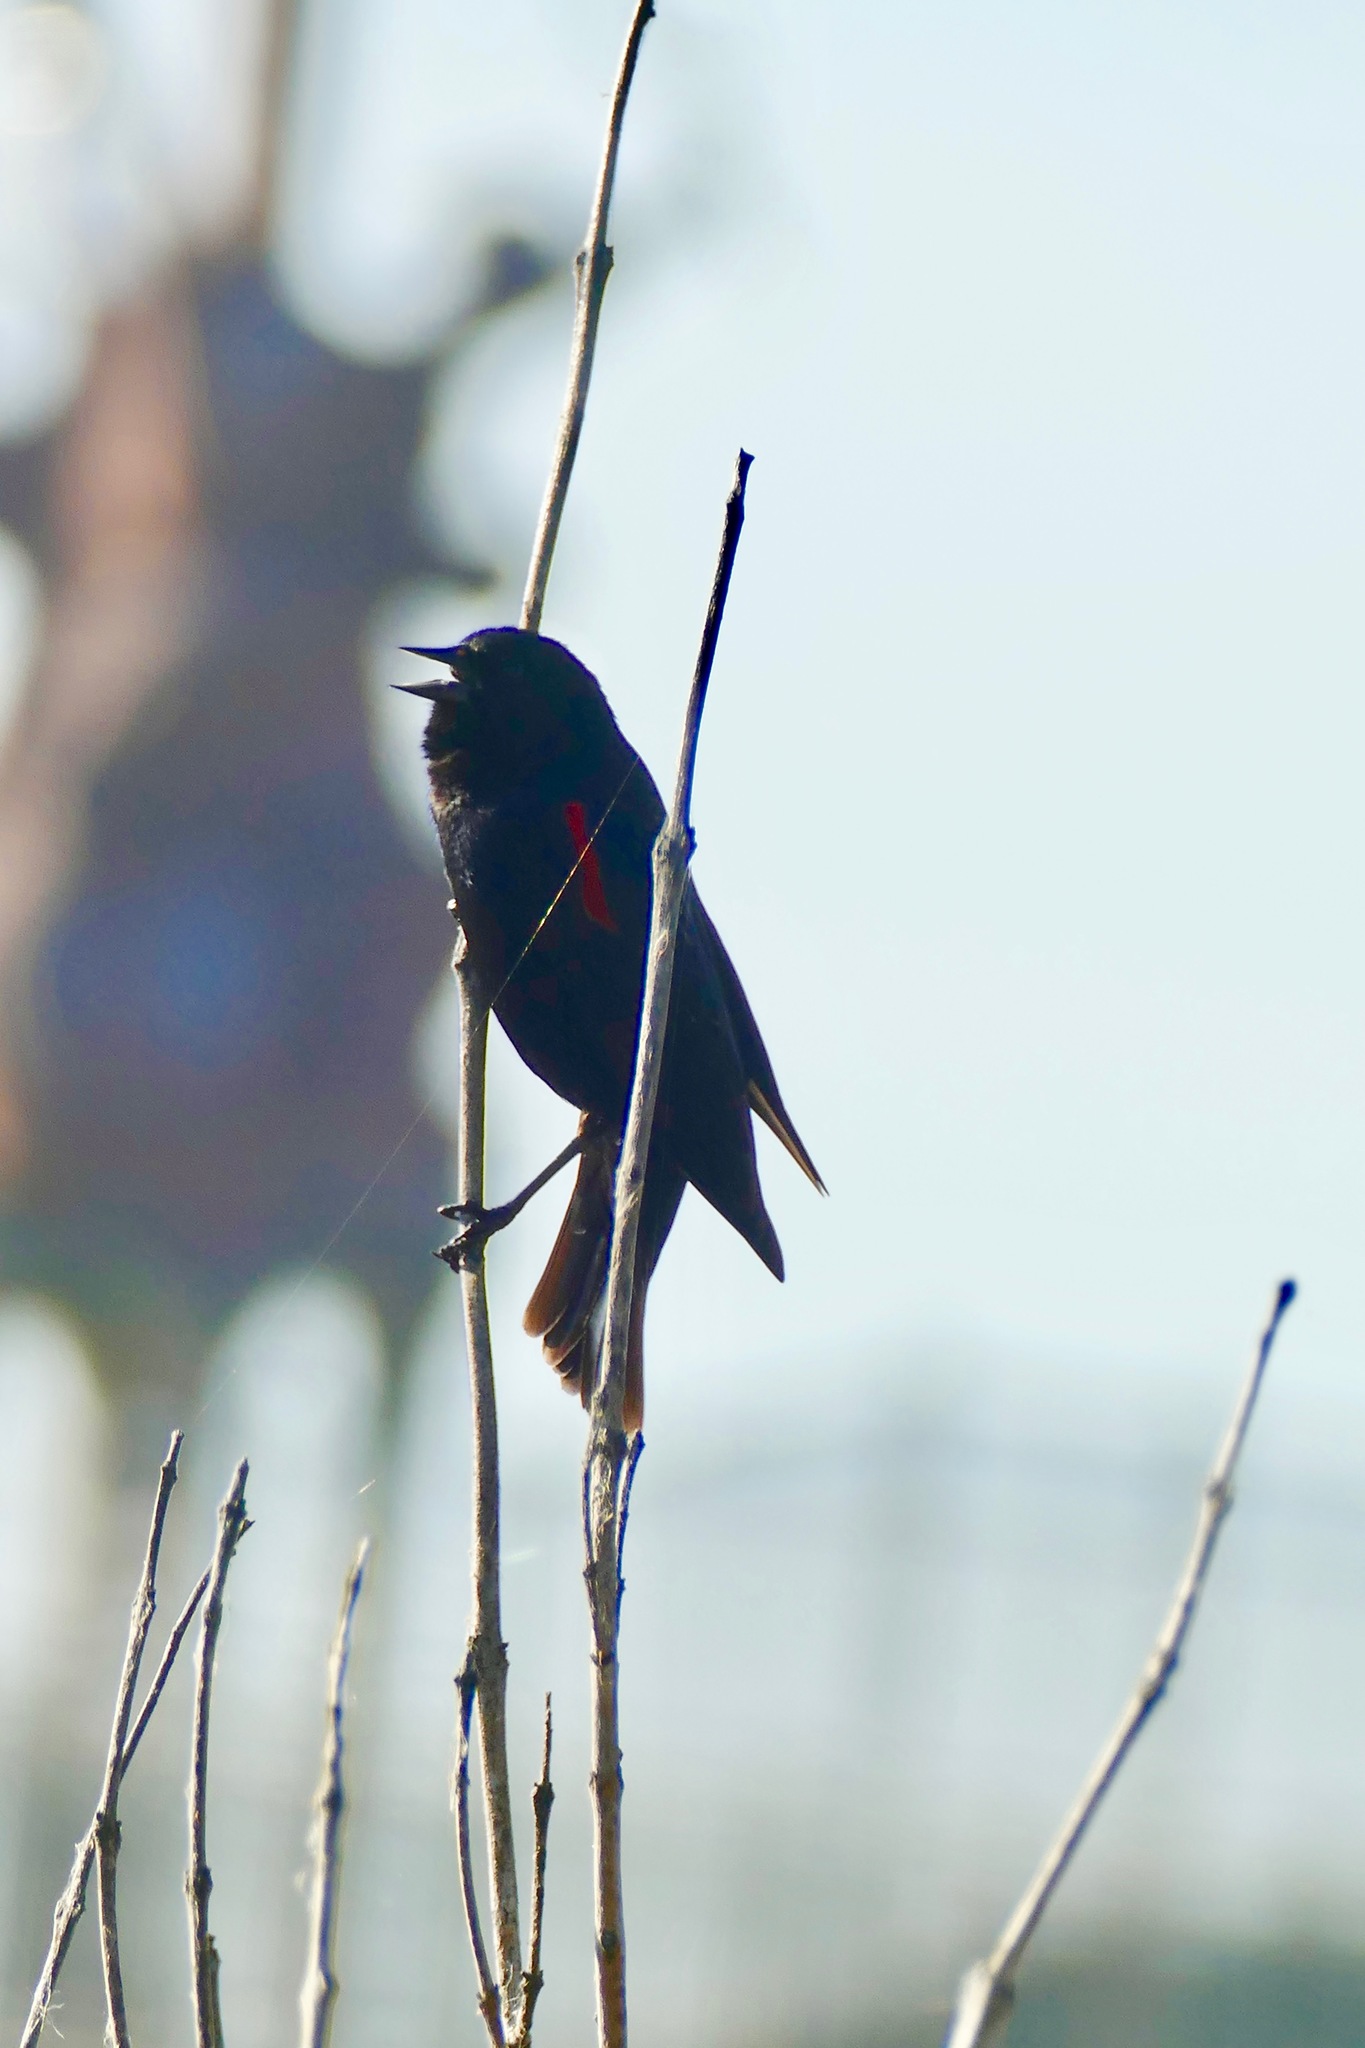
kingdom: Animalia
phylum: Chordata
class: Aves
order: Passeriformes
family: Icteridae
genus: Agelaius
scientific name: Agelaius phoeniceus
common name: Red-winged blackbird
